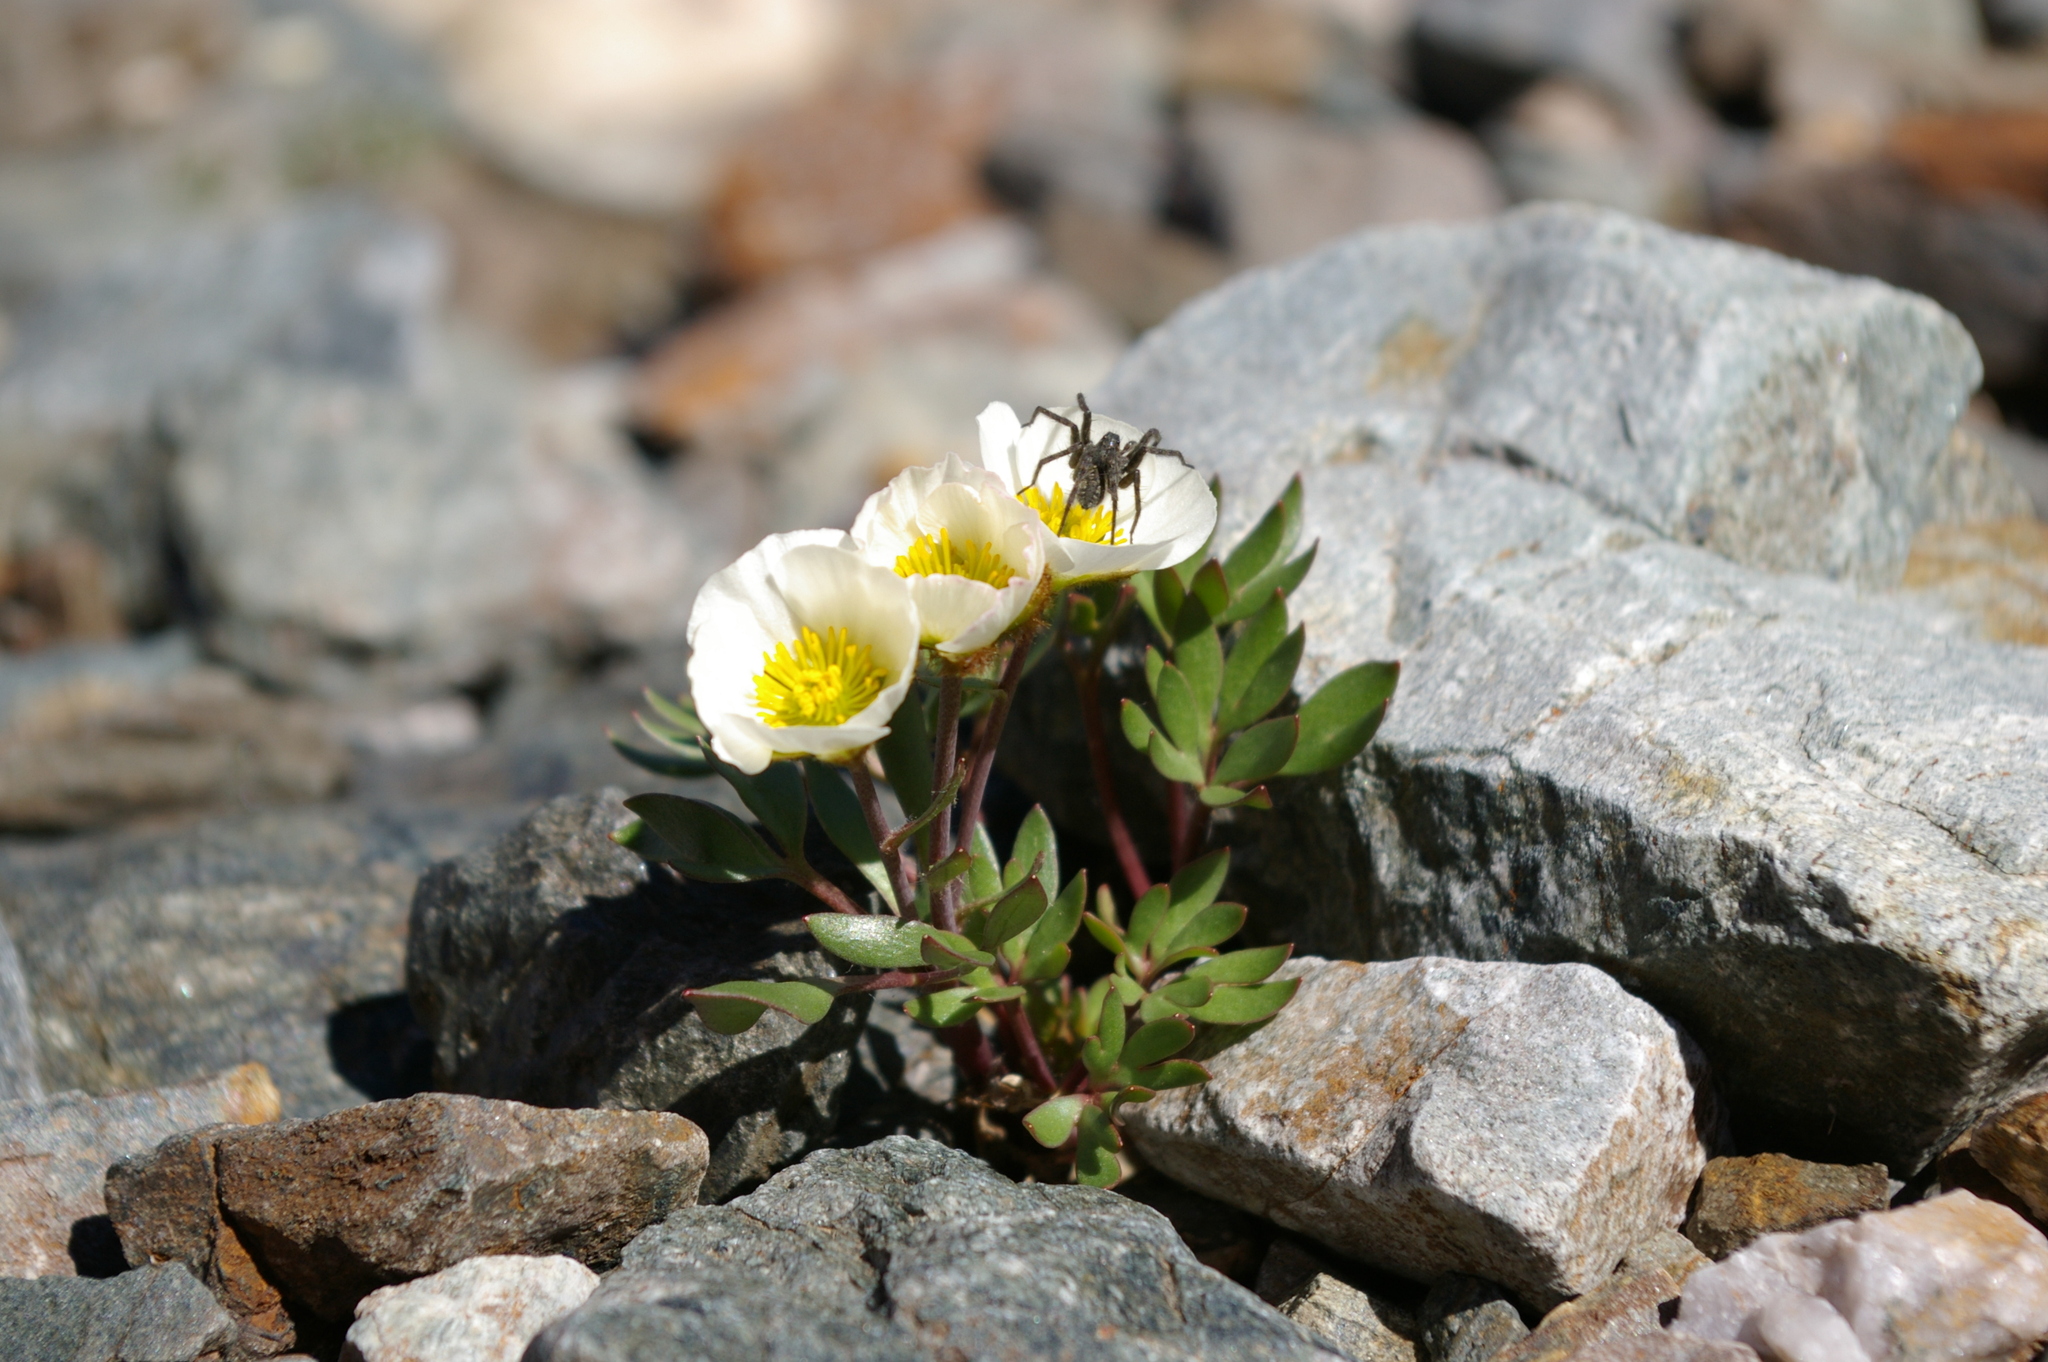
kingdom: Animalia
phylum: Arthropoda
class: Arachnida
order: Araneae
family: Lycosidae
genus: Pardosa
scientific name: Pardosa
